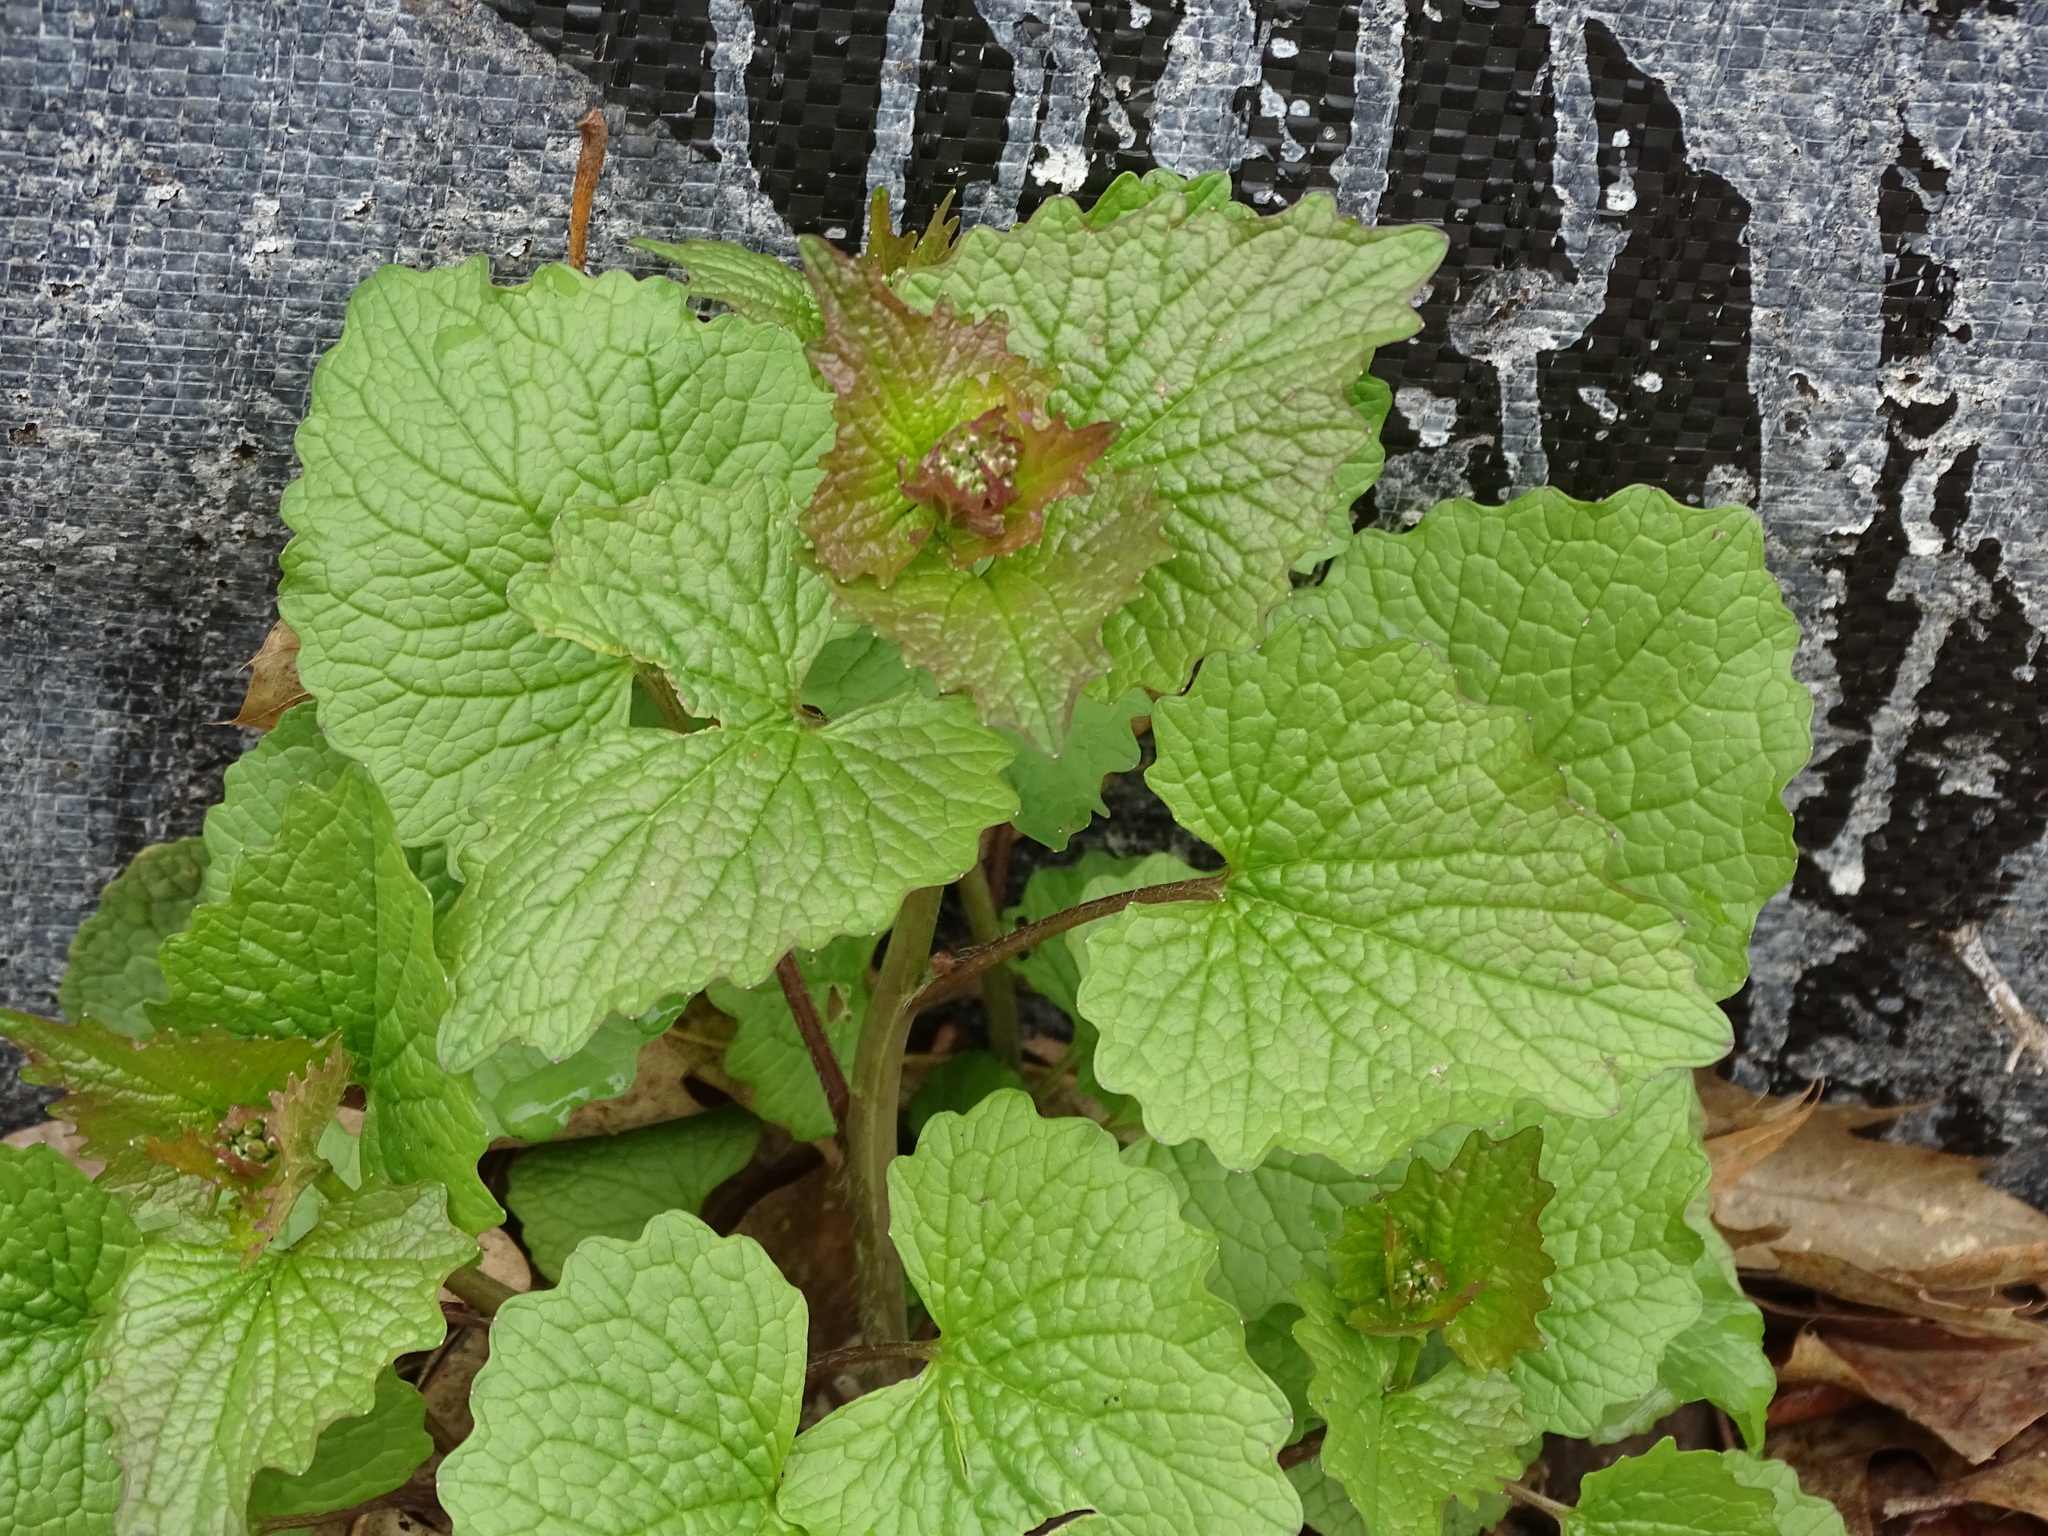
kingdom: Plantae
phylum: Tracheophyta
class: Magnoliopsida
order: Brassicales
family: Brassicaceae
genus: Alliaria
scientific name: Alliaria petiolata
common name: Garlic mustard
